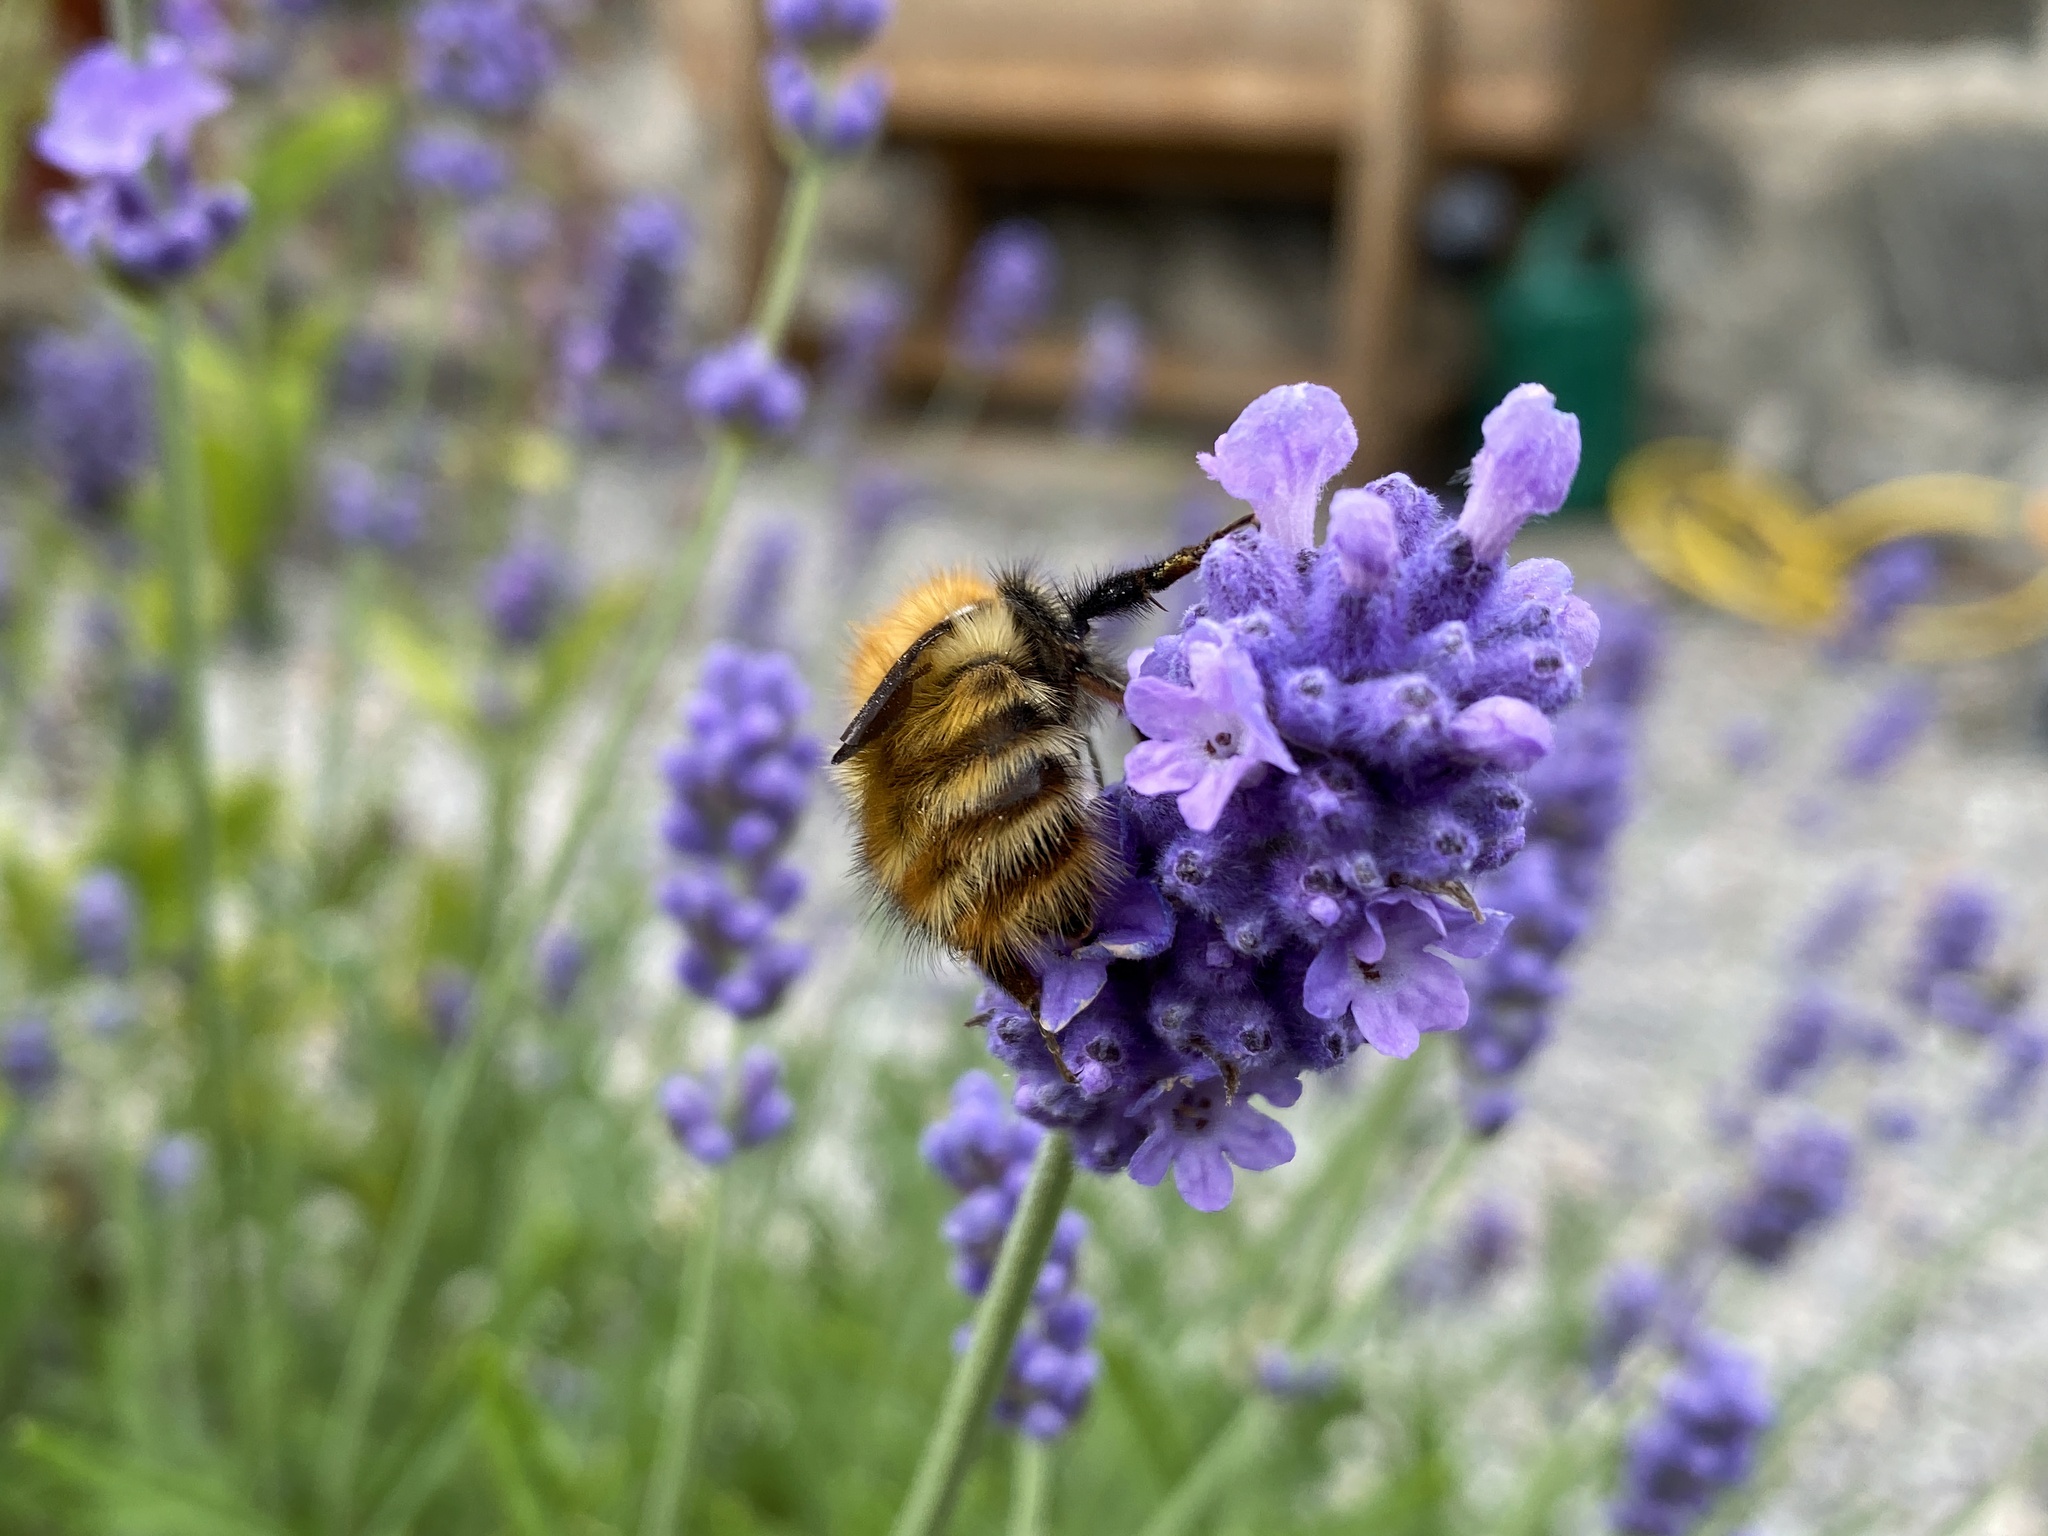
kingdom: Animalia
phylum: Arthropoda
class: Insecta
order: Hymenoptera
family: Apidae
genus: Bombus
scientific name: Bombus pascuorum
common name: Common carder bee
